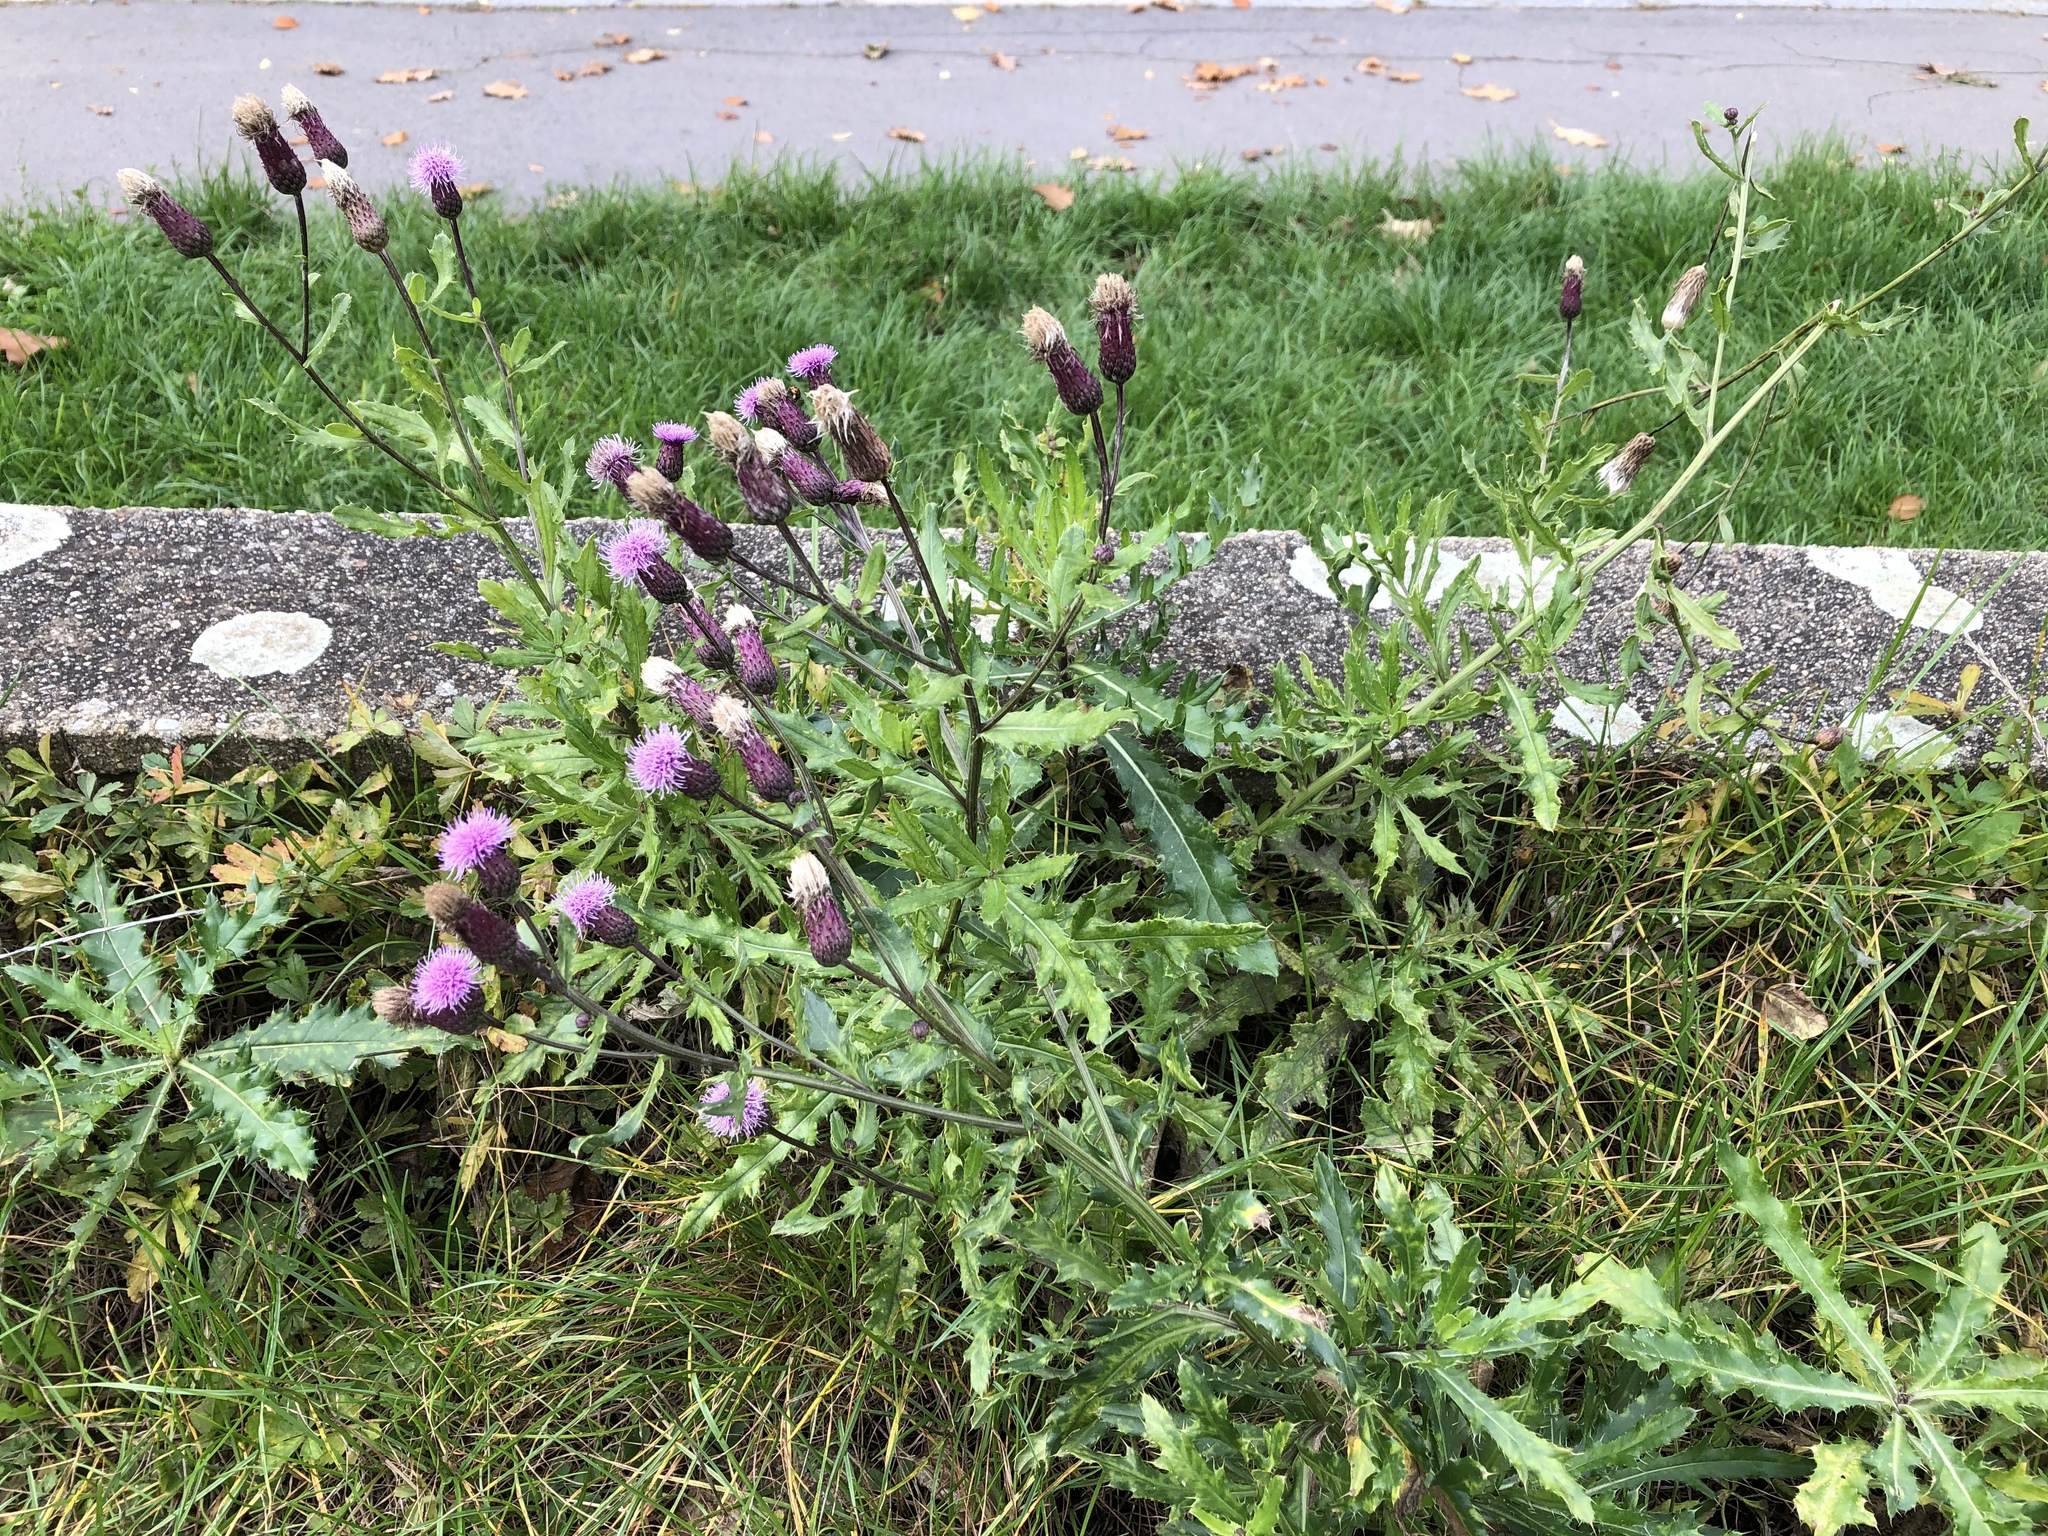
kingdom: Plantae
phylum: Tracheophyta
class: Magnoliopsida
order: Asterales
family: Asteraceae
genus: Cirsium
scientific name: Cirsium arvense
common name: Creeping thistle
